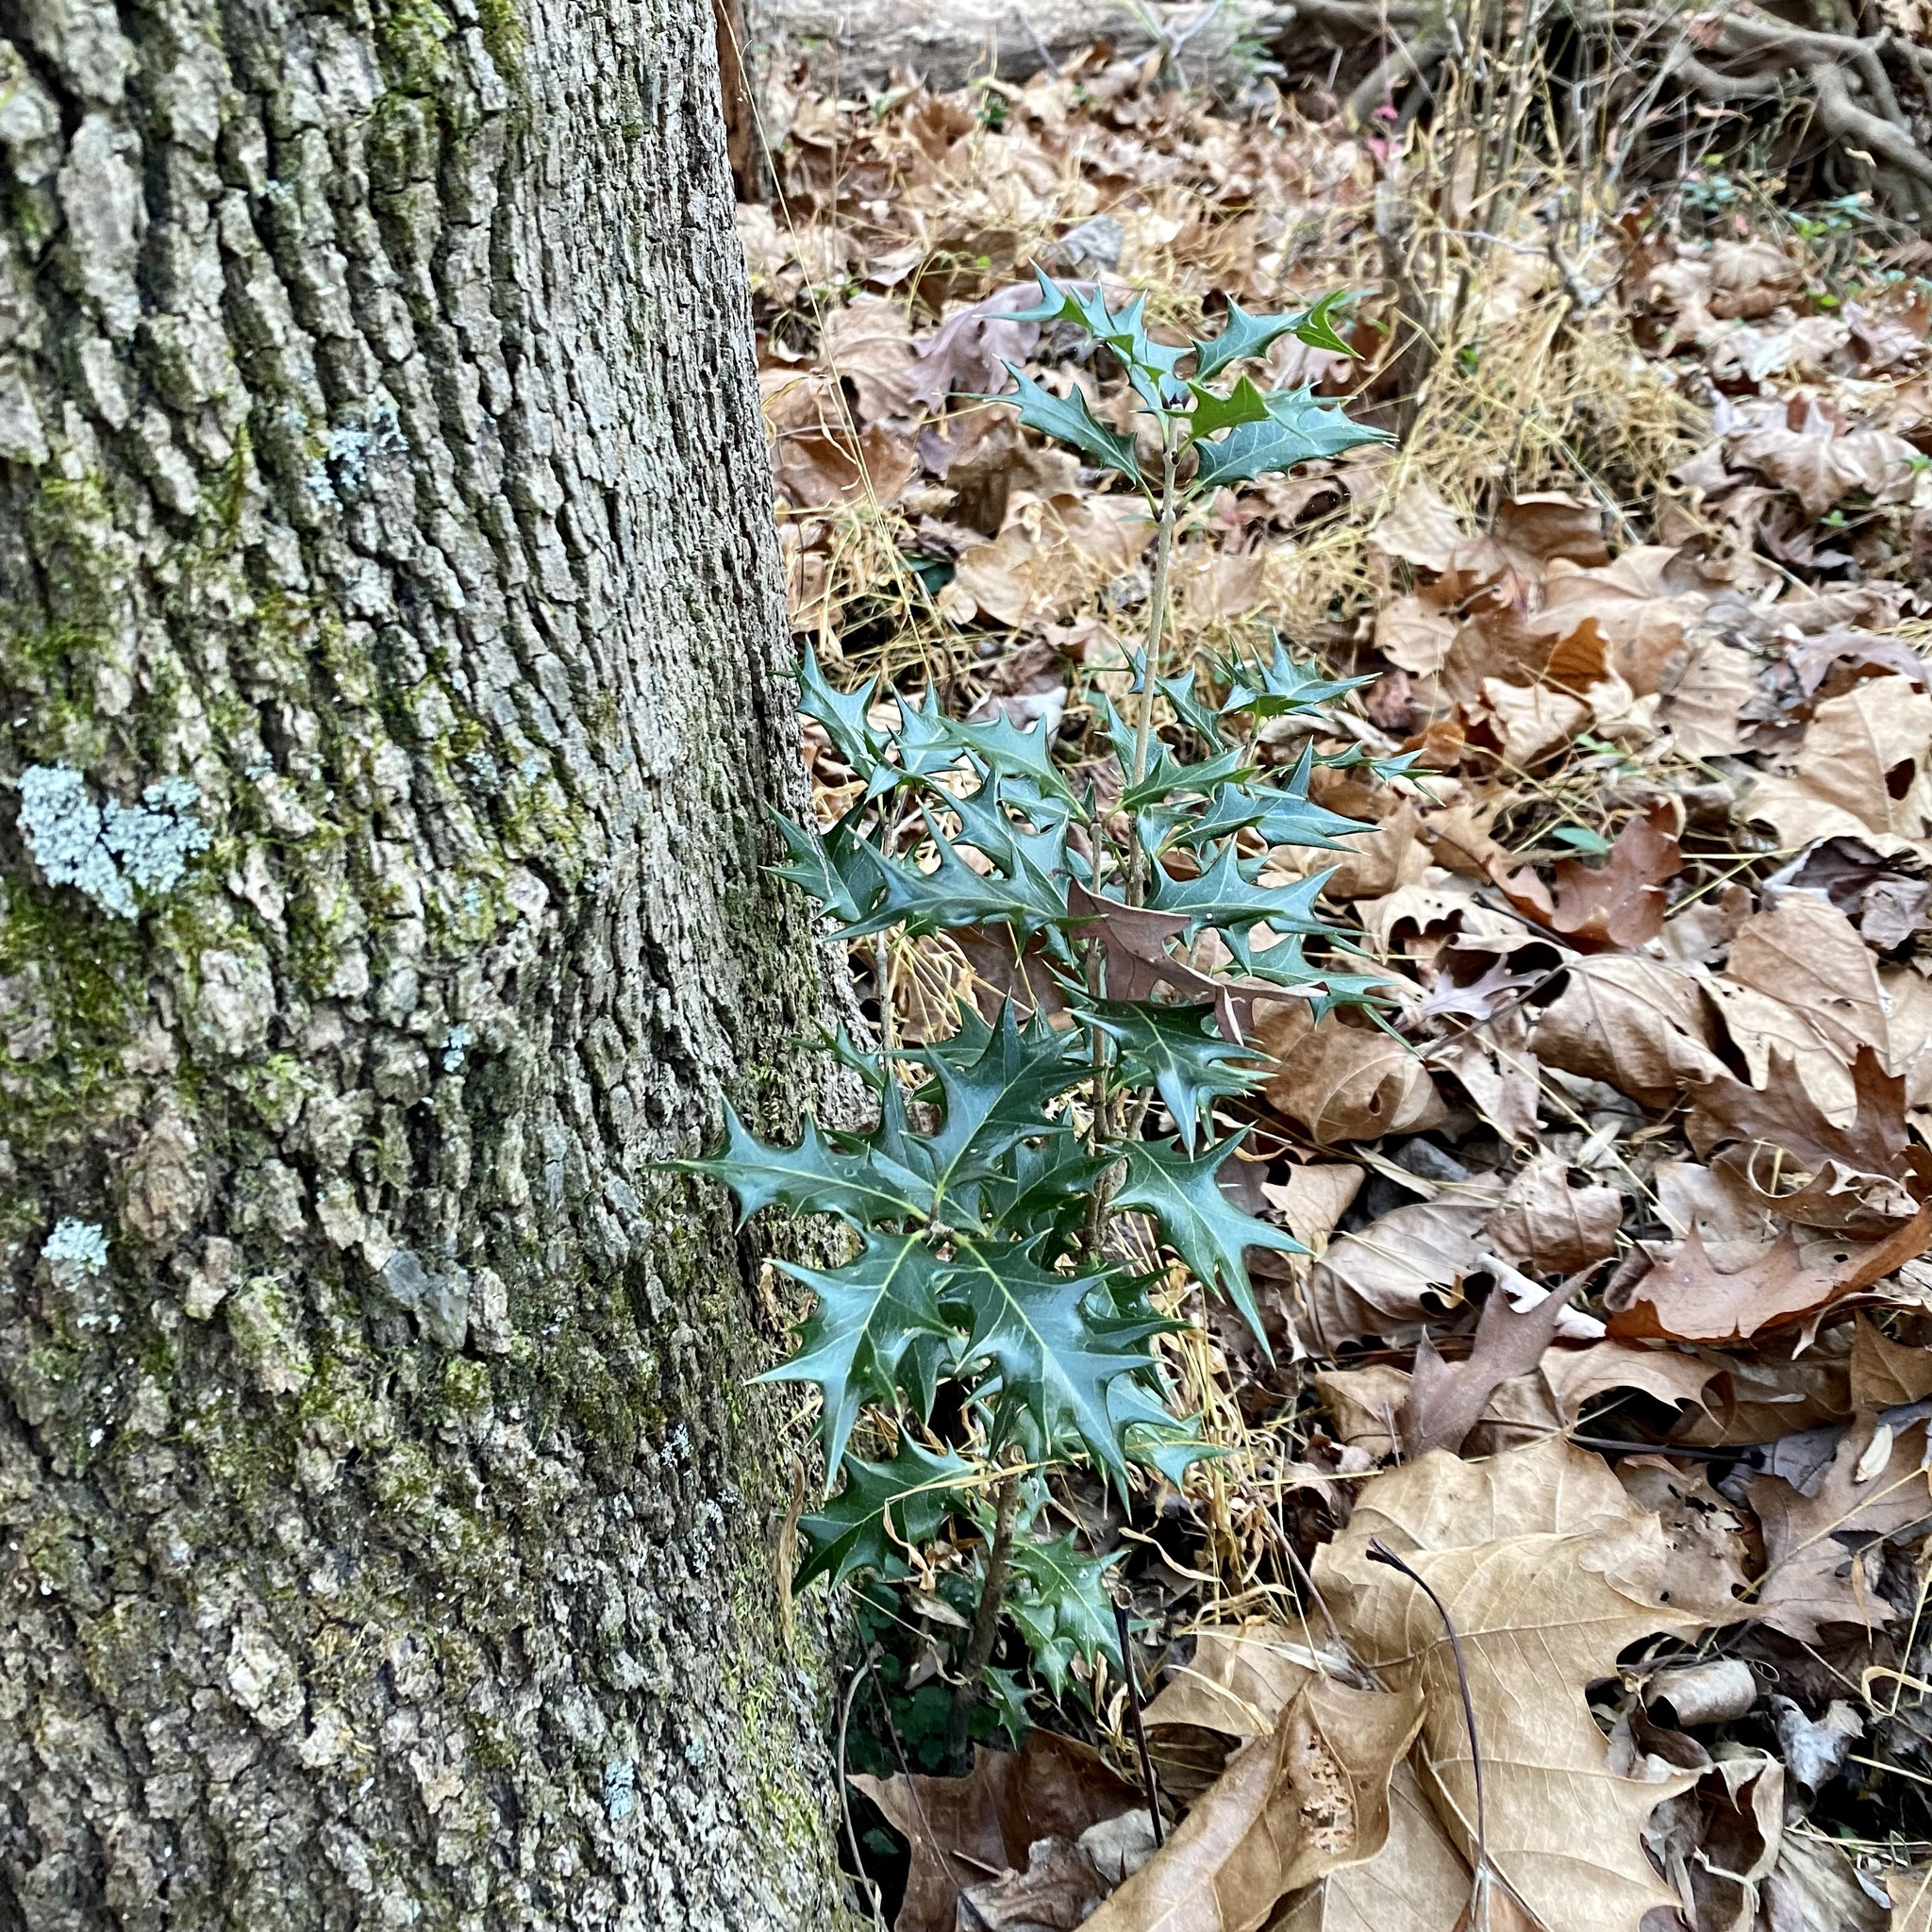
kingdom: Plantae
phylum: Tracheophyta
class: Magnoliopsida
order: Lamiales
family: Oleaceae
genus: Osmanthus
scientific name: Osmanthus heterophyllus
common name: Holly osmanthus
